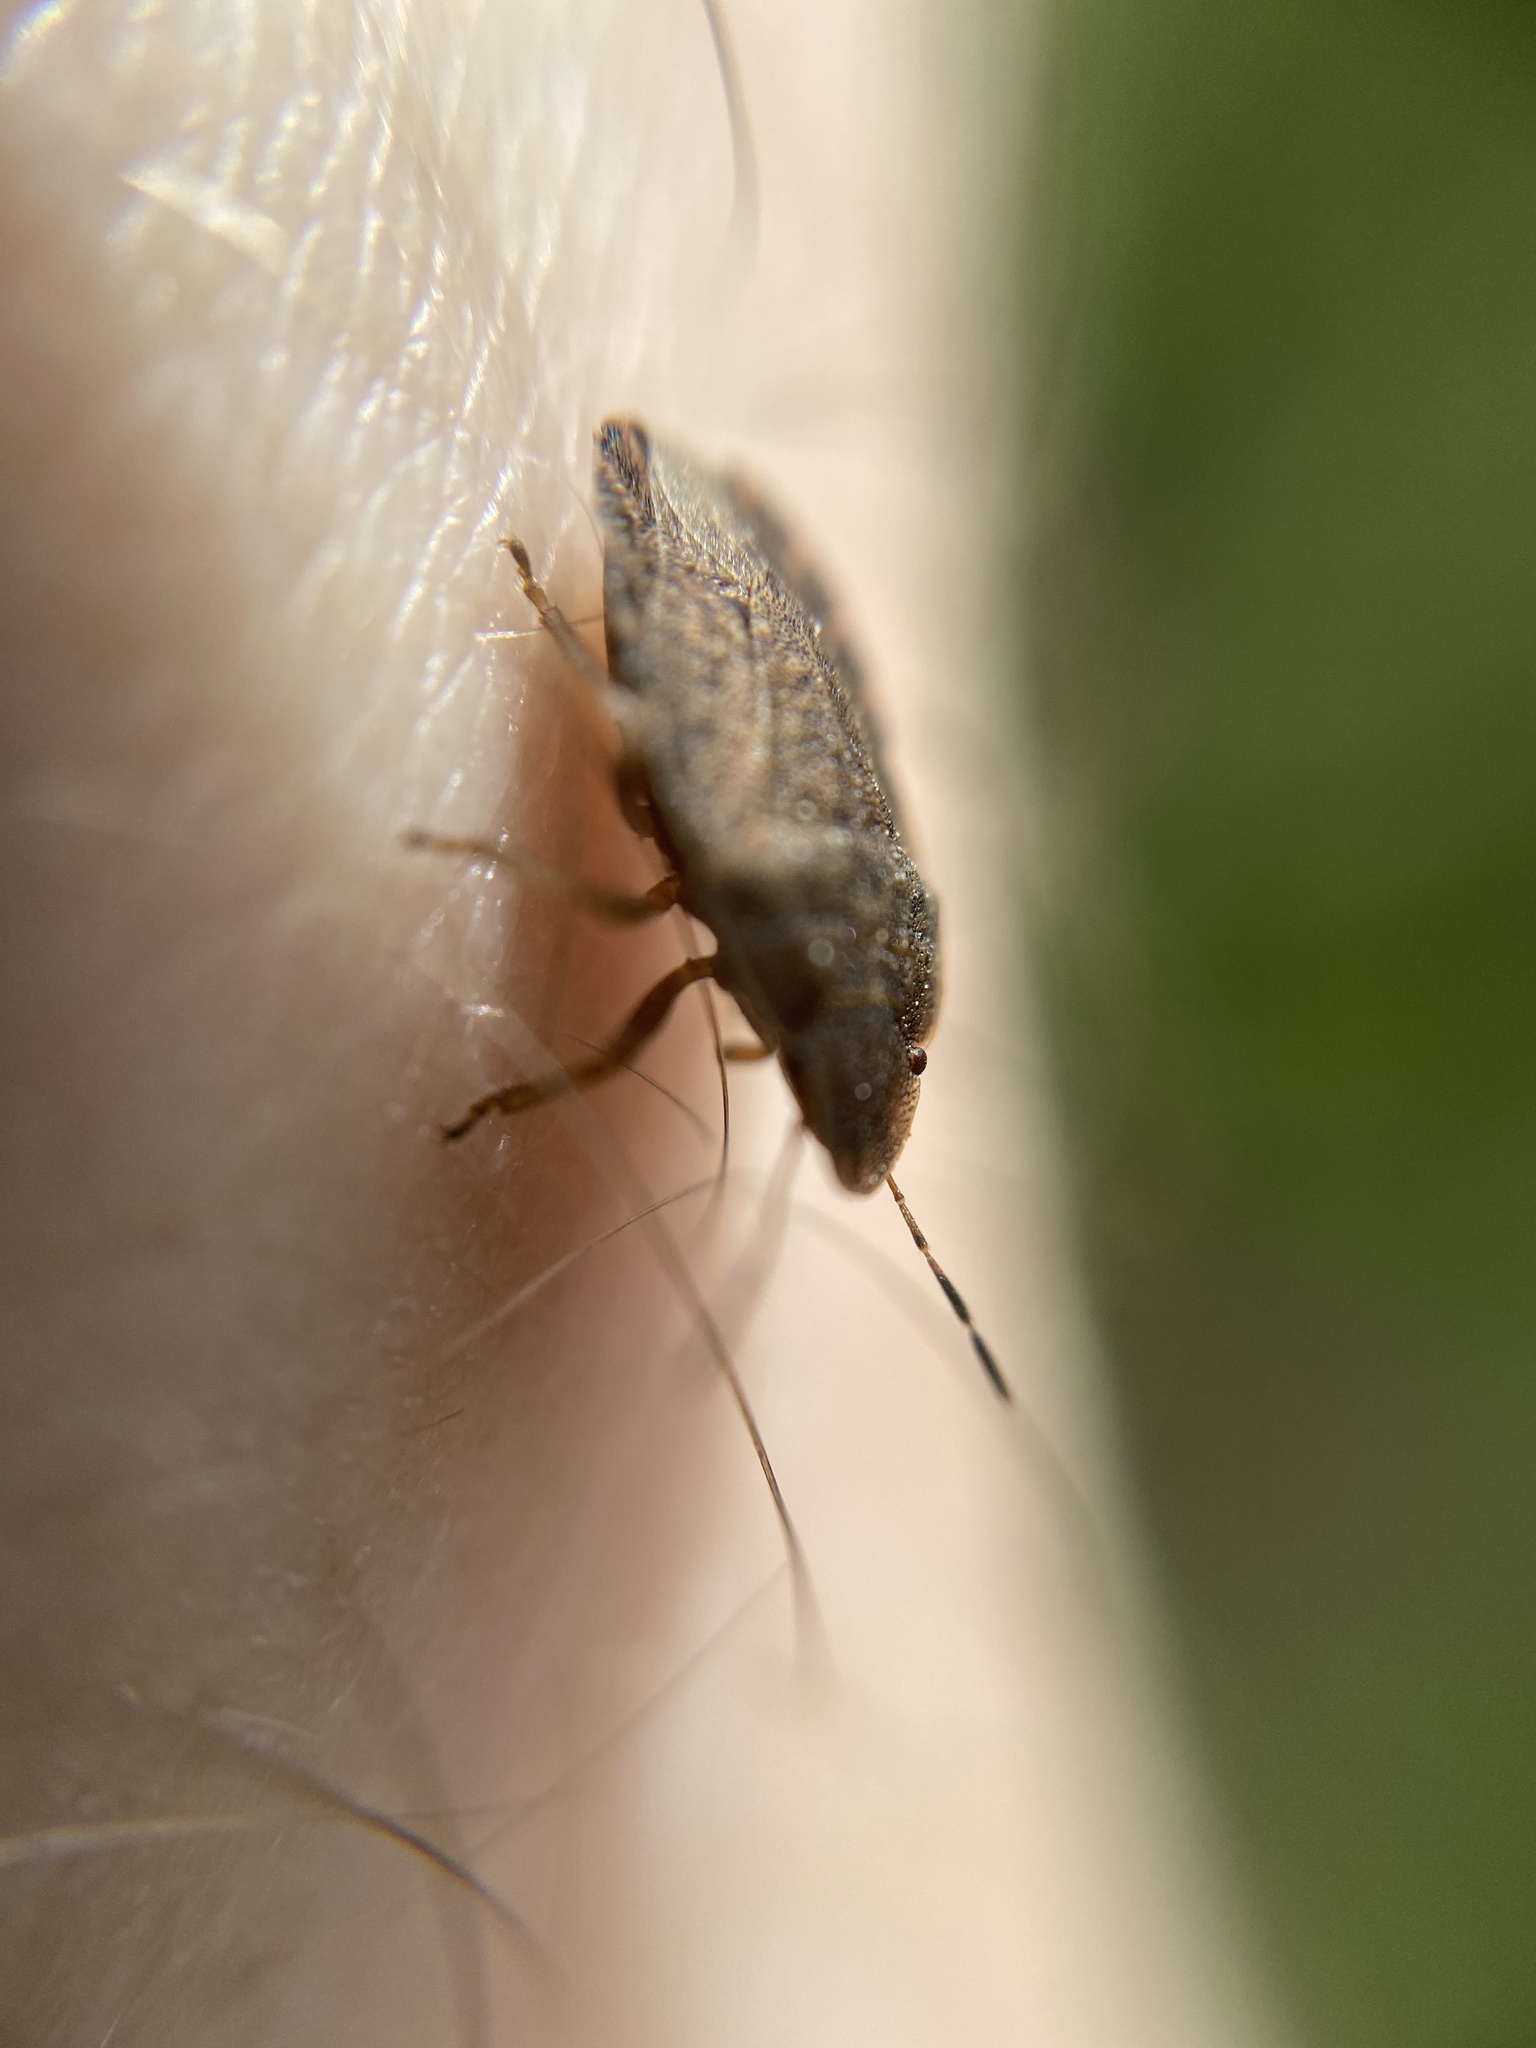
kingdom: Animalia
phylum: Arthropoda
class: Insecta
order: Hemiptera
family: Pentatomidae
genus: Sciocoris
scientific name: Sciocoris microphthalmus
